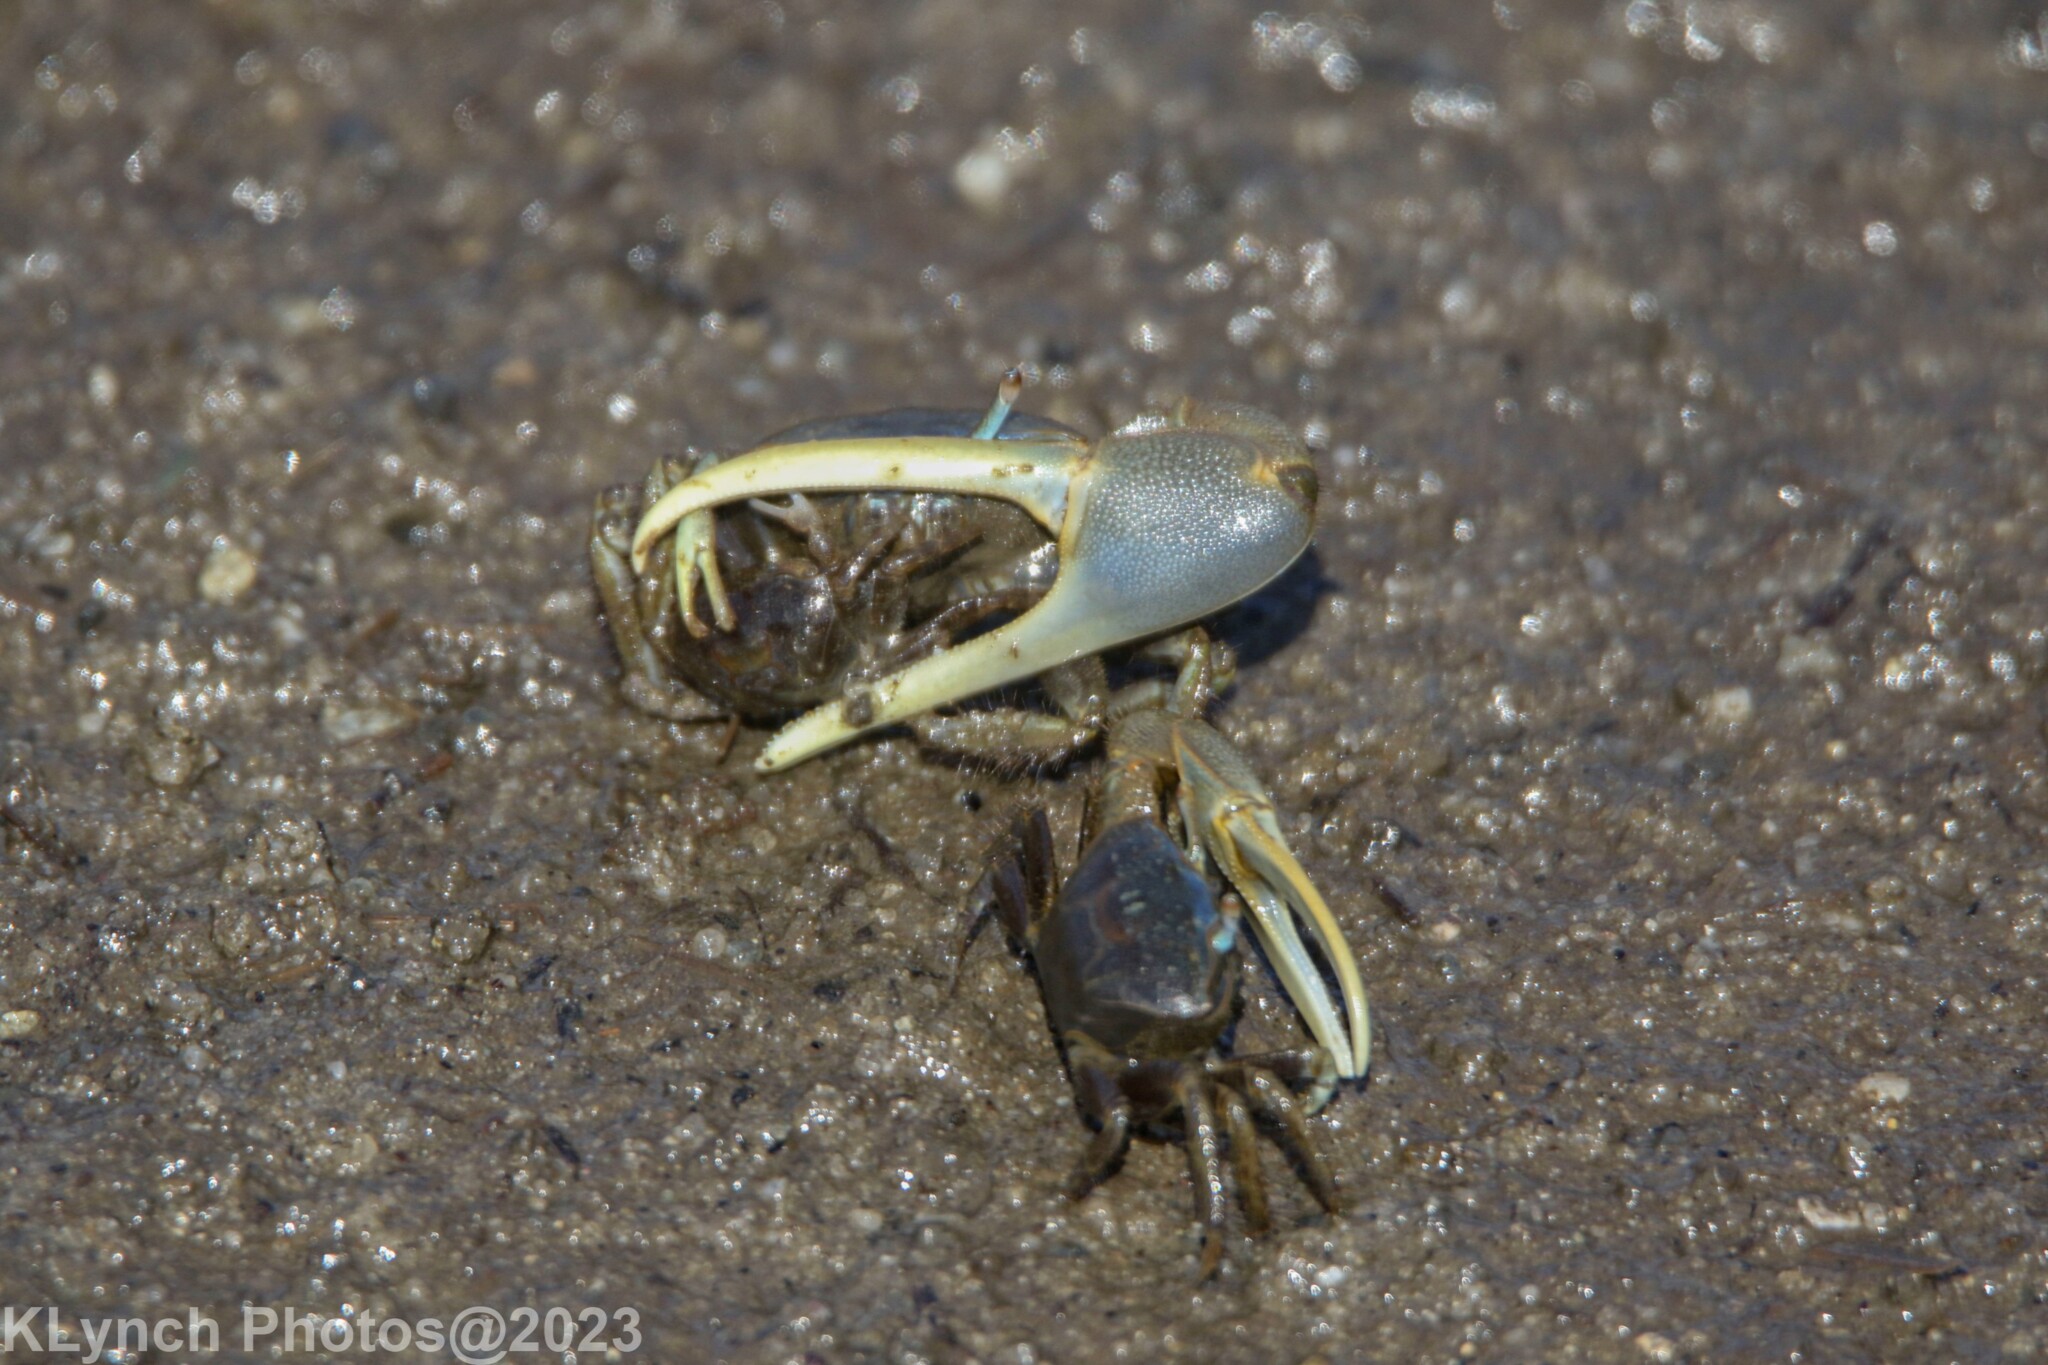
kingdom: Animalia
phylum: Arthropoda
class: Malacostraca
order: Decapoda
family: Ocypodidae
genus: Minuca
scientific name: Minuca pugnax
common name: Mud fiddler crab
